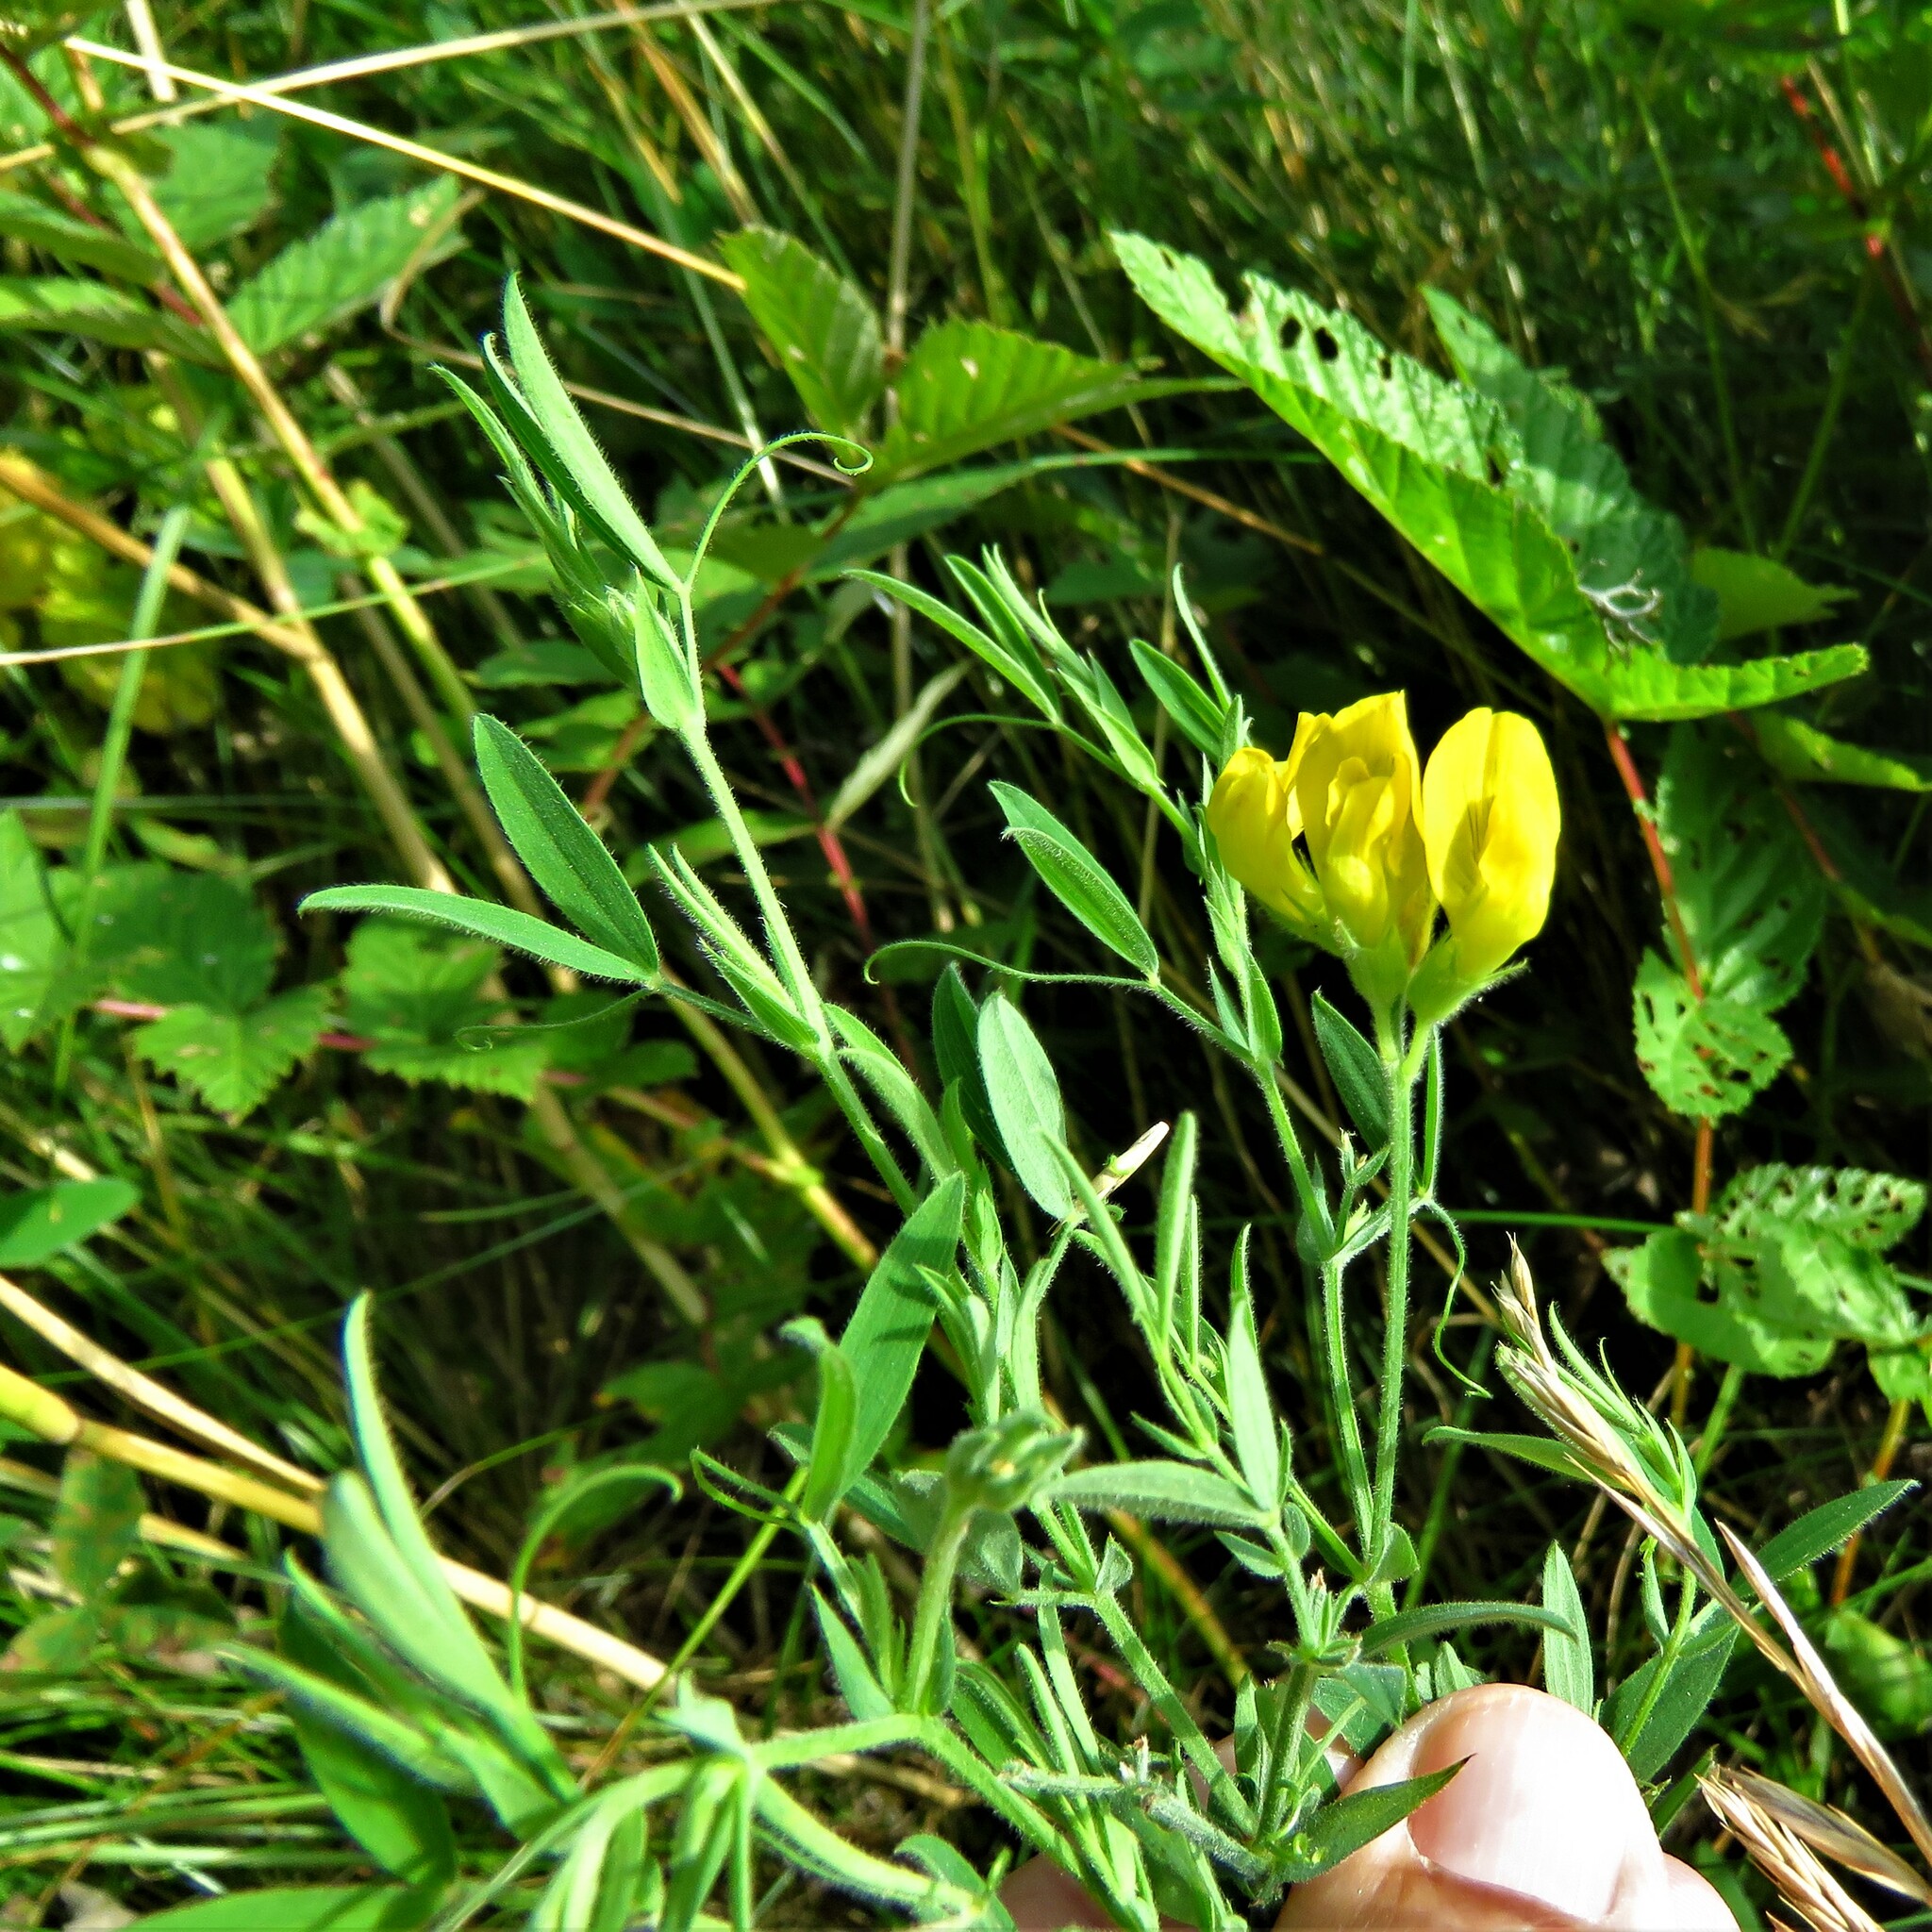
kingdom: Plantae
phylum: Tracheophyta
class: Magnoliopsida
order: Fabales
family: Fabaceae
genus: Lathyrus
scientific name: Lathyrus pratensis
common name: Meadow vetchling
